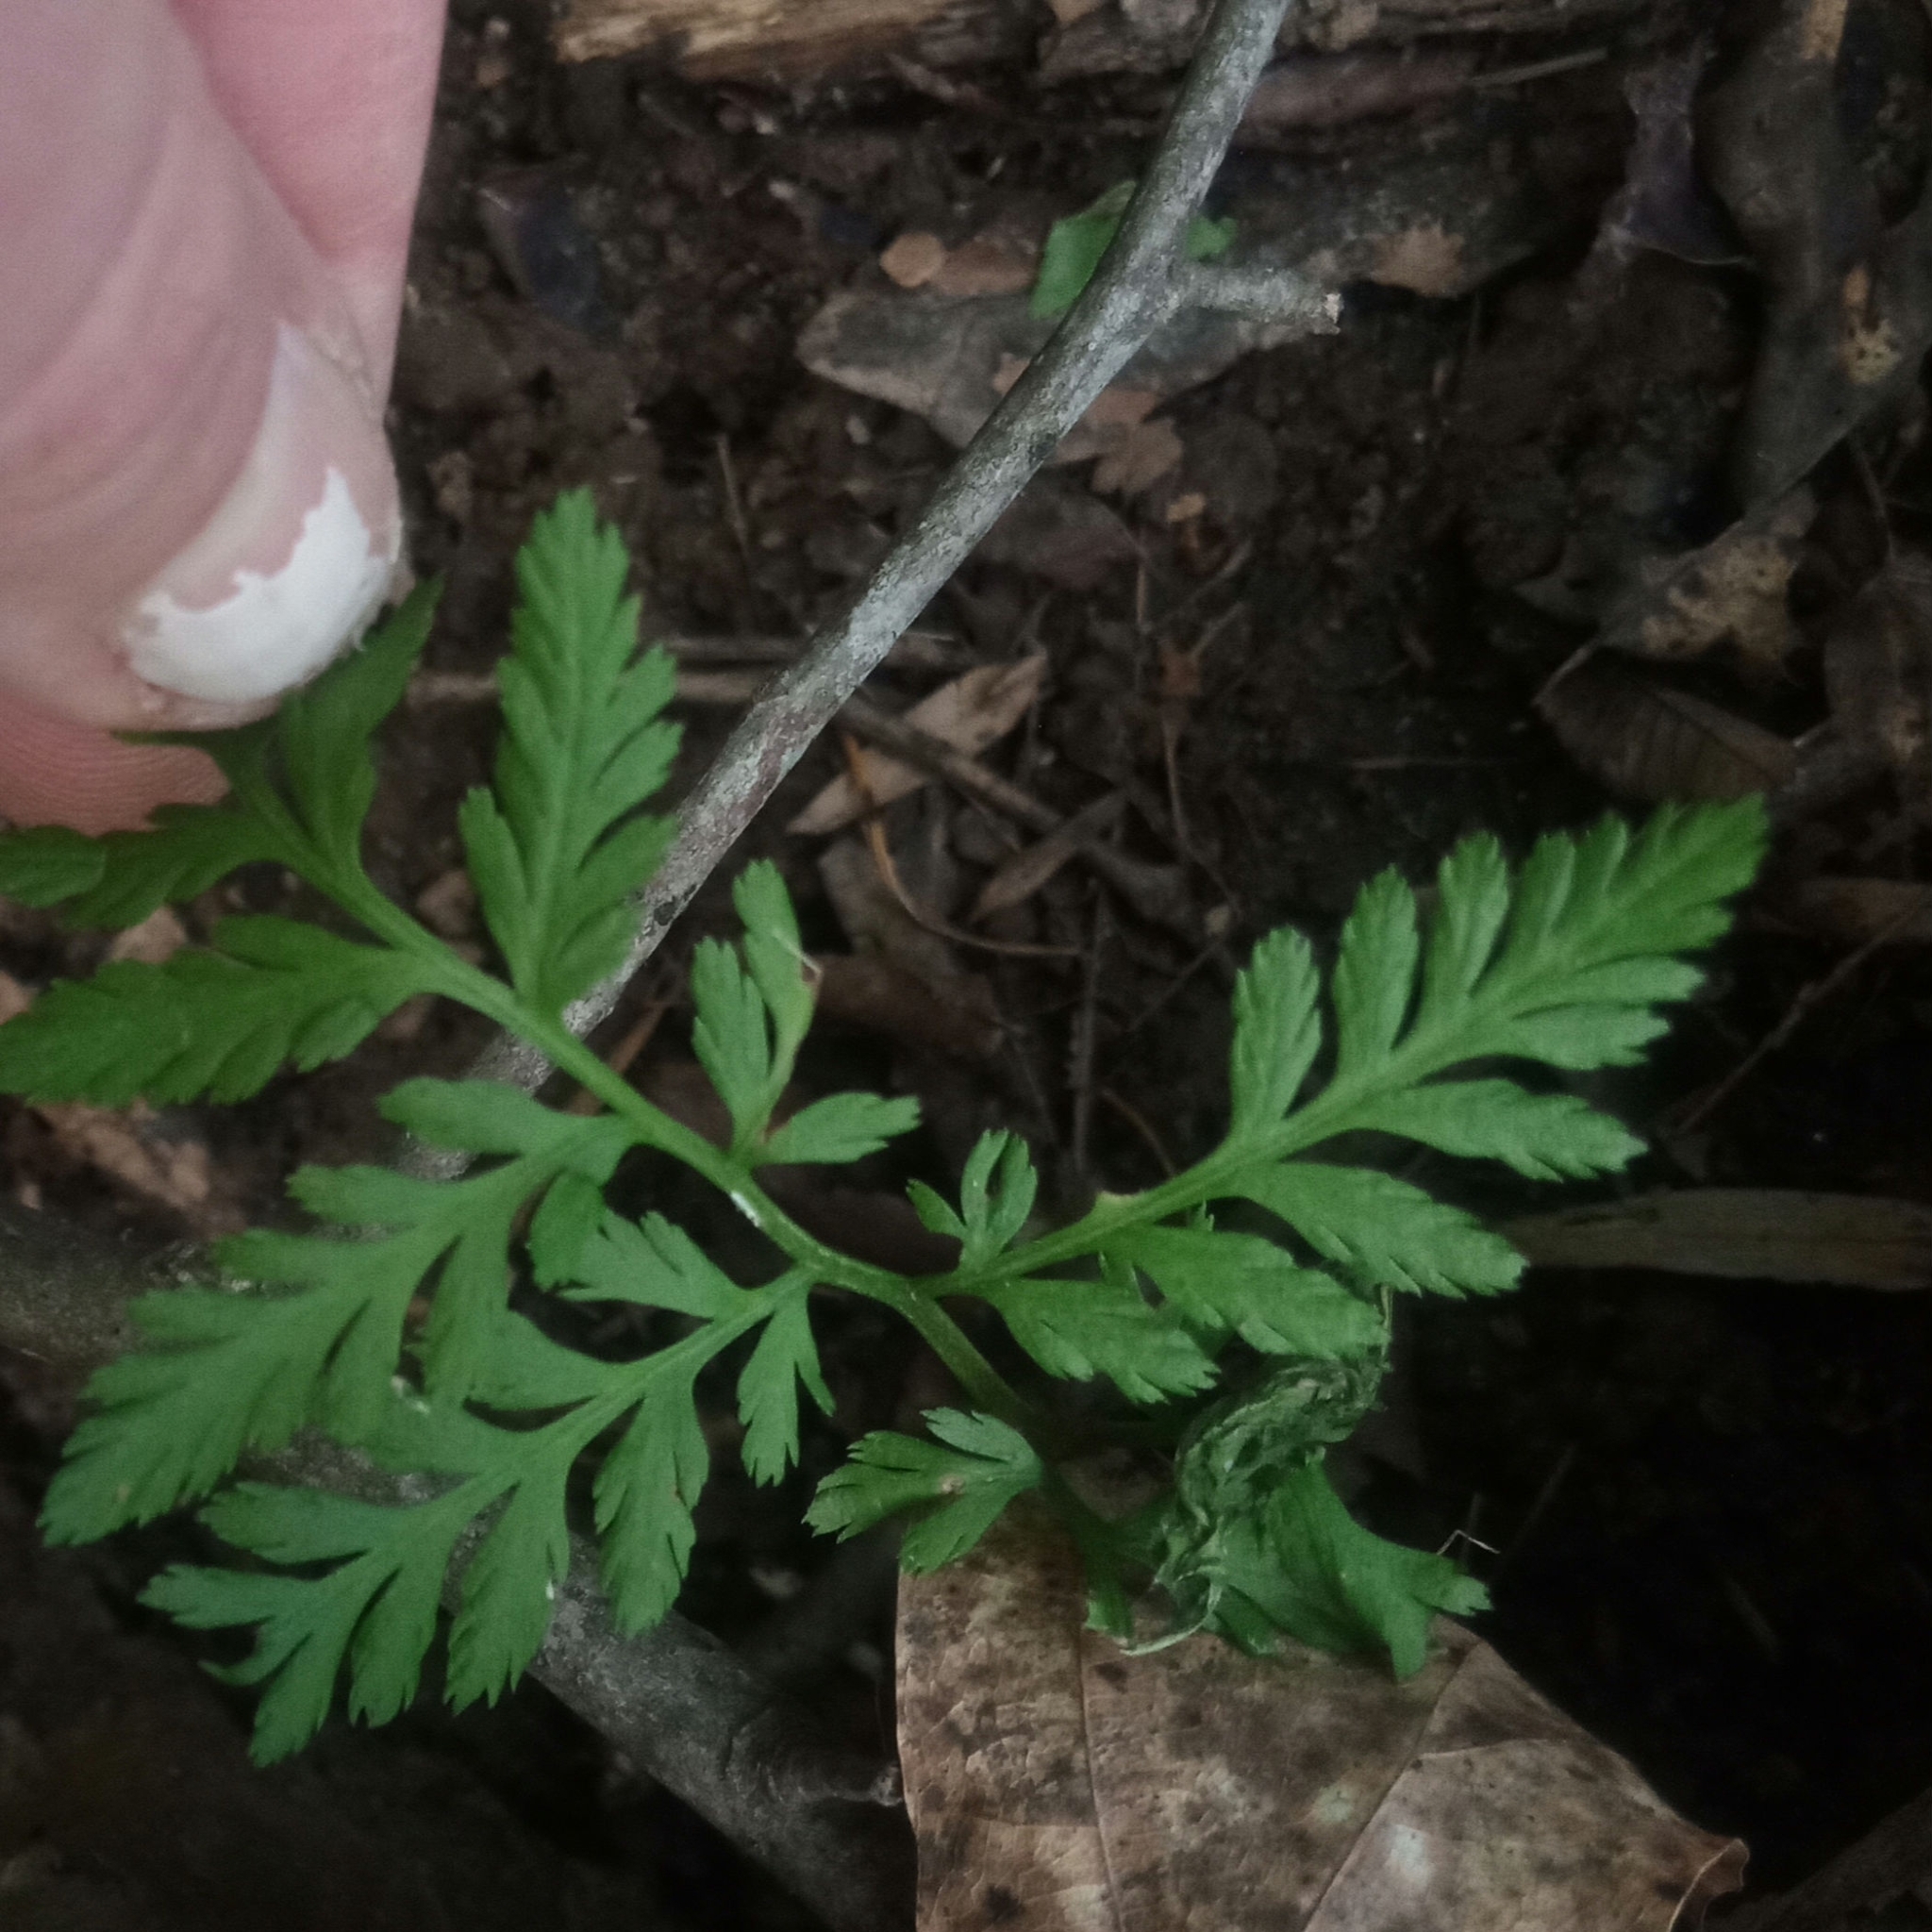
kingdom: Plantae
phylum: Tracheophyta
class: Polypodiopsida
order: Ophioglossales
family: Ophioglossaceae
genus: Botrypus
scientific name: Botrypus virginianus
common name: Common grapefern
